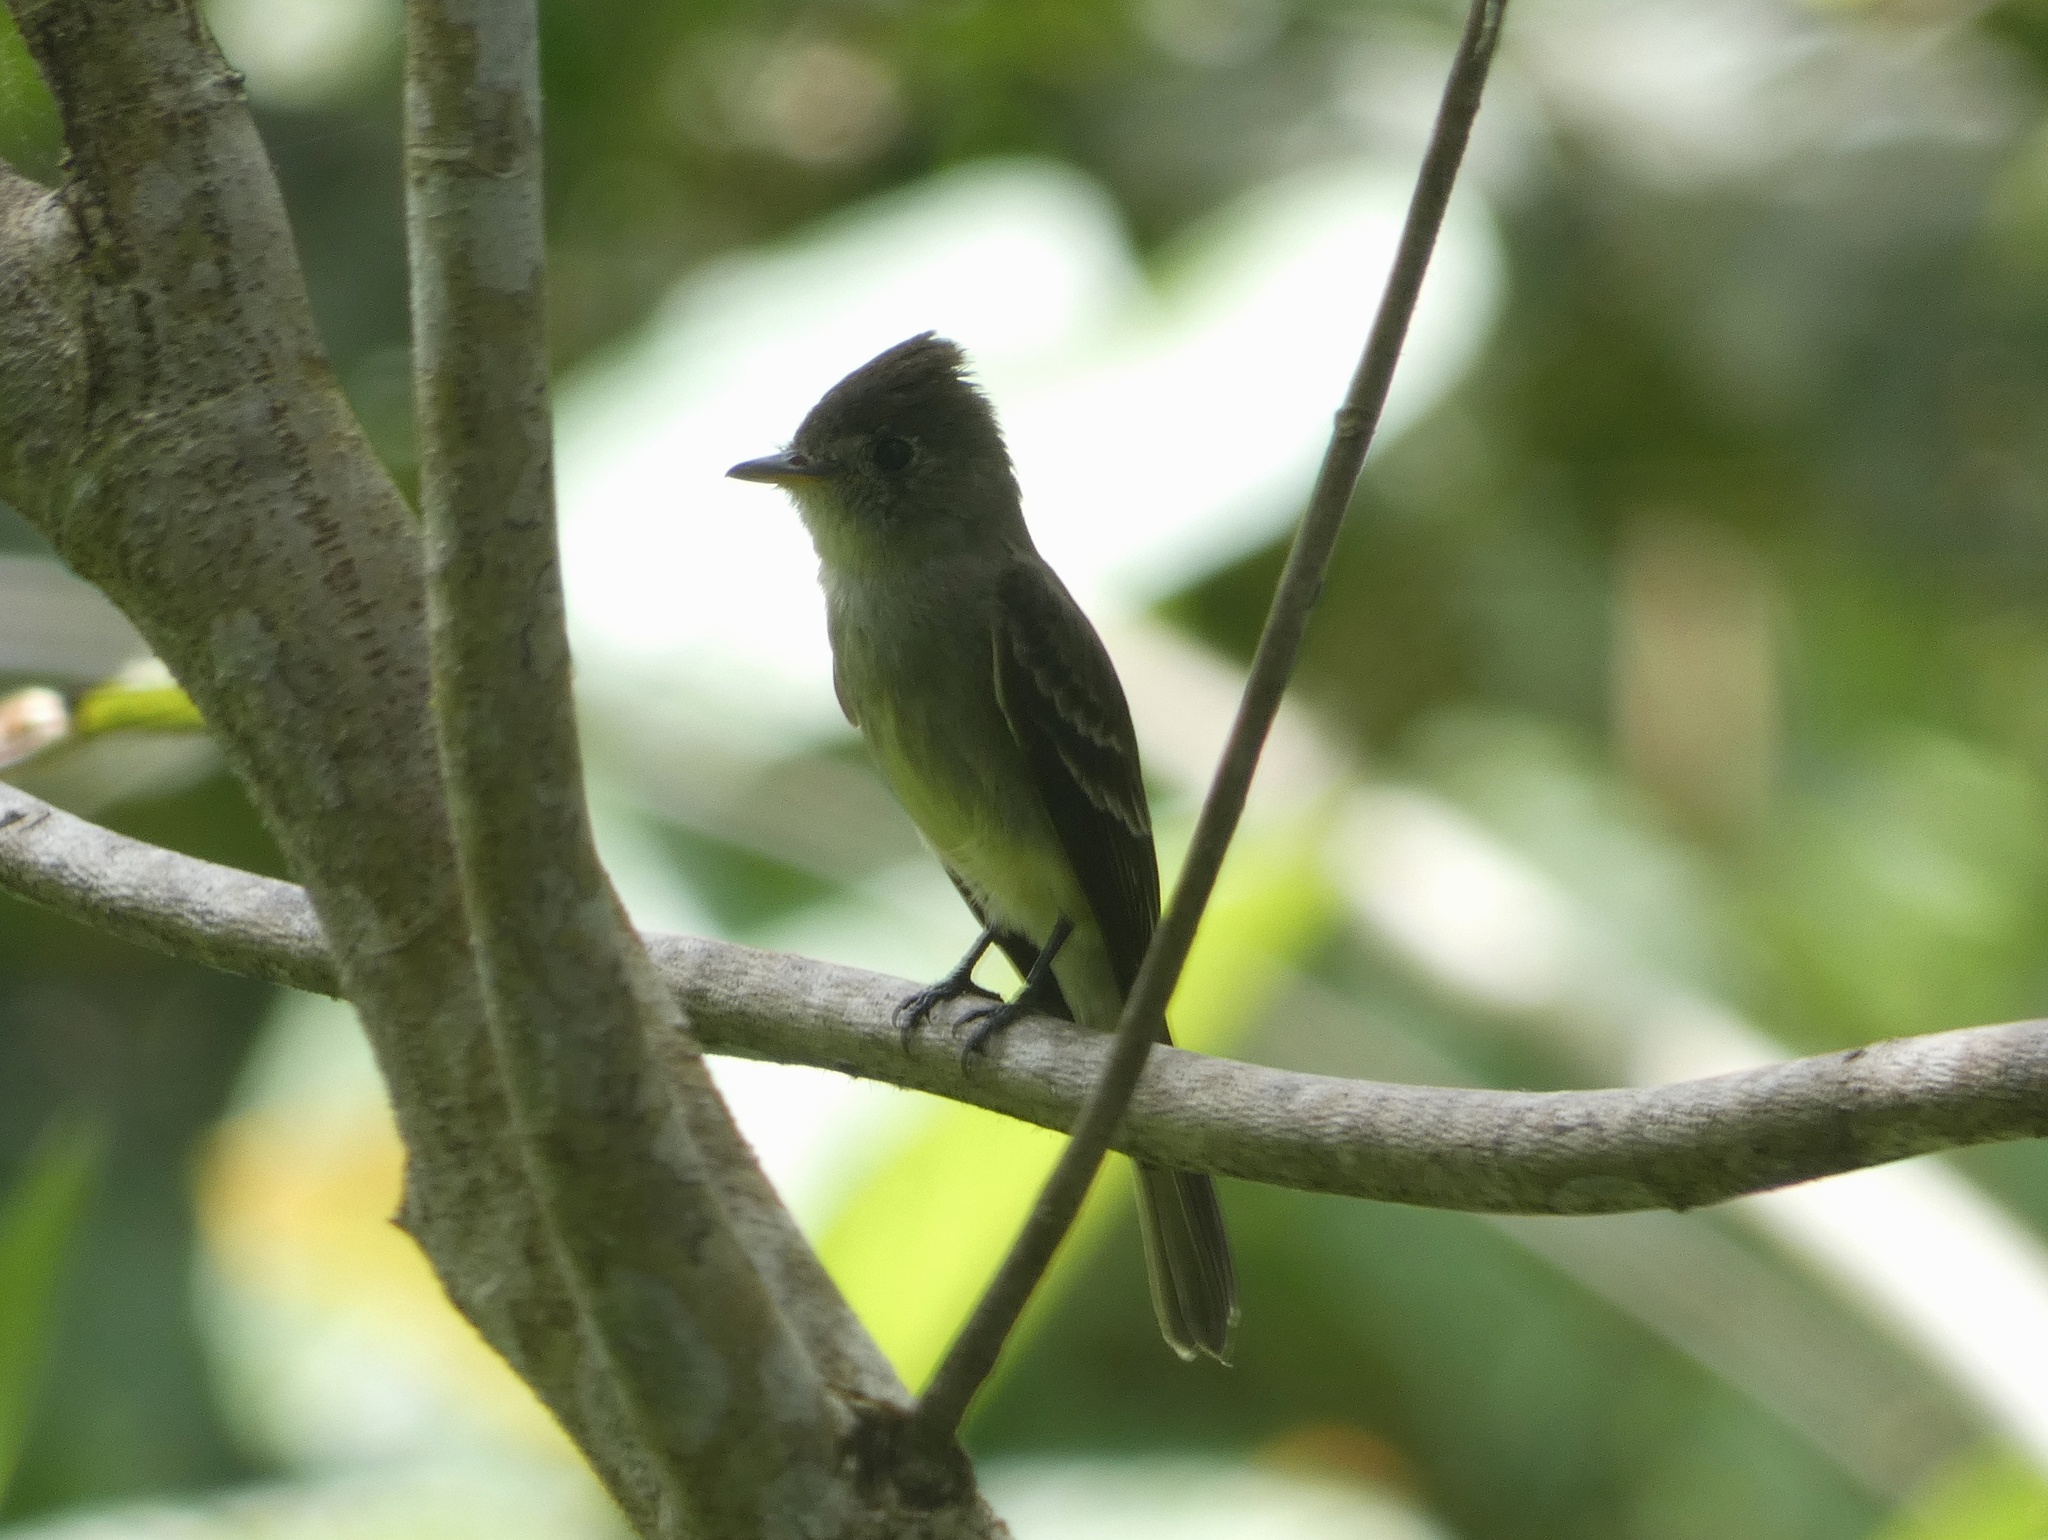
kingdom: Animalia
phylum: Chordata
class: Aves
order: Passeriformes
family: Tyrannidae
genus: Contopus
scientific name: Contopus cinereus
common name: Tropical pewee
